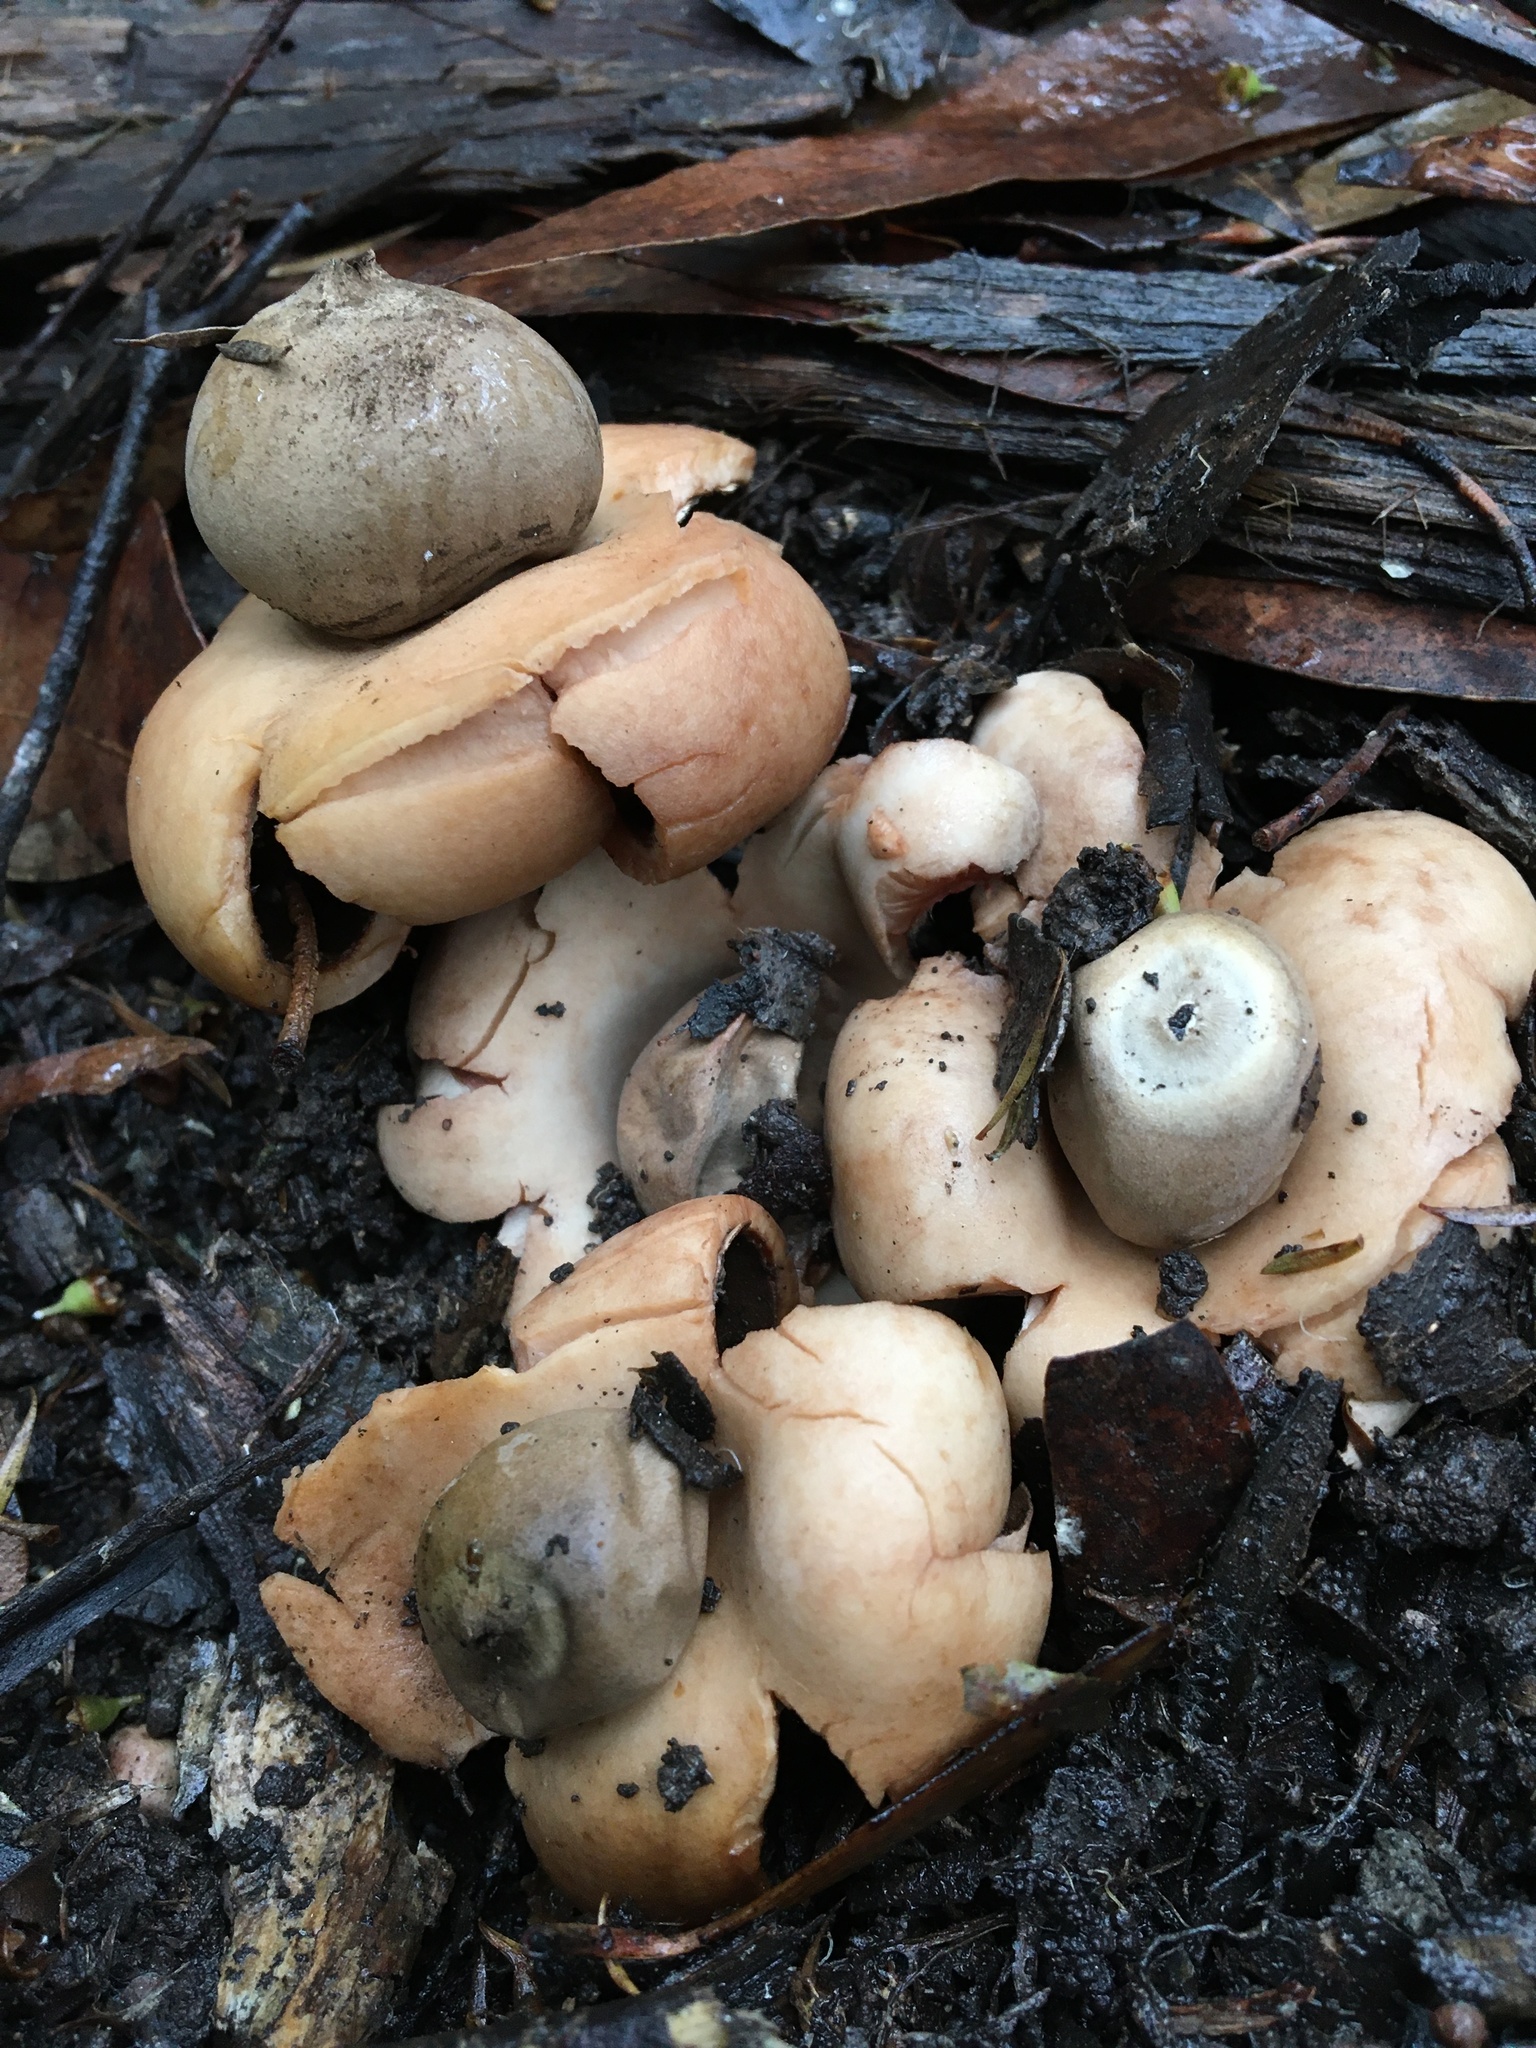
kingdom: Fungi
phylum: Basidiomycota
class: Agaricomycetes
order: Geastrales
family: Geastraceae
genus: Geastrum
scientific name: Geastrum triplex
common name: Collared earthstar
